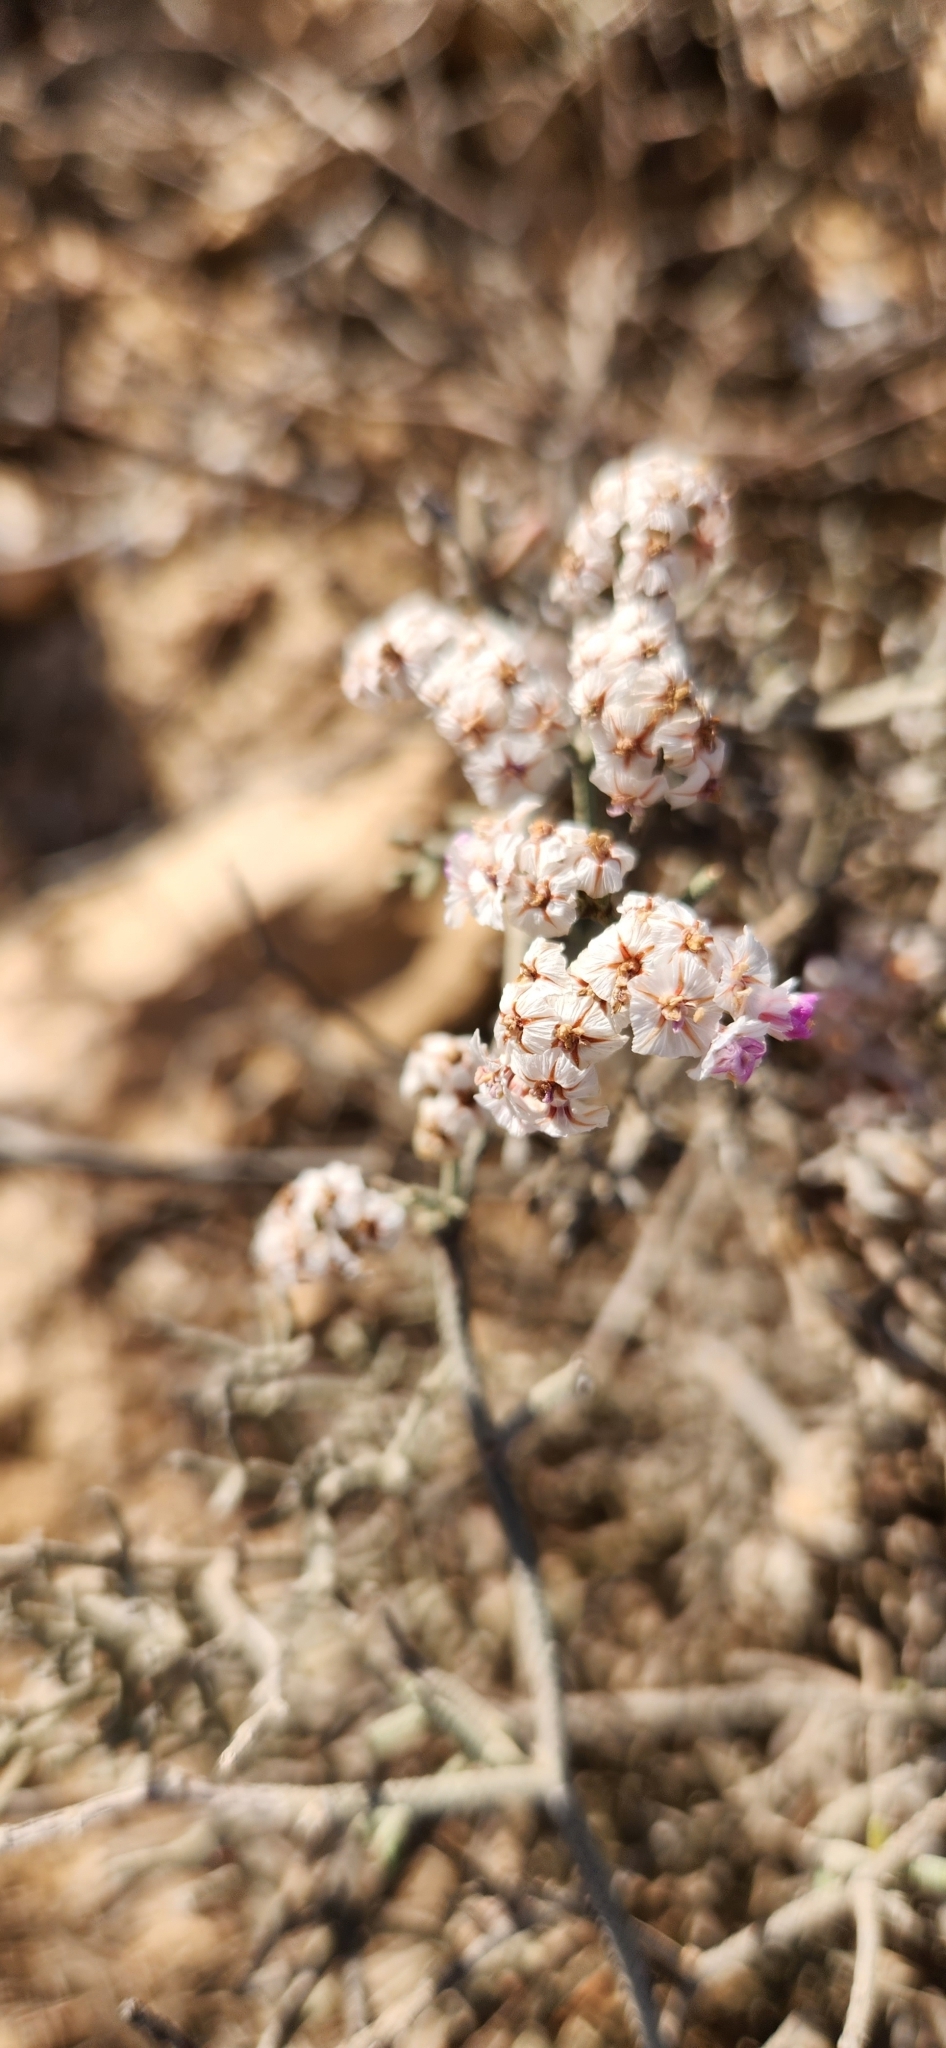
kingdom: Plantae
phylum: Tracheophyta
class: Magnoliopsida
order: Caryophyllales
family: Plumbaginaceae
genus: Limonium
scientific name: Limonium pruinosum
